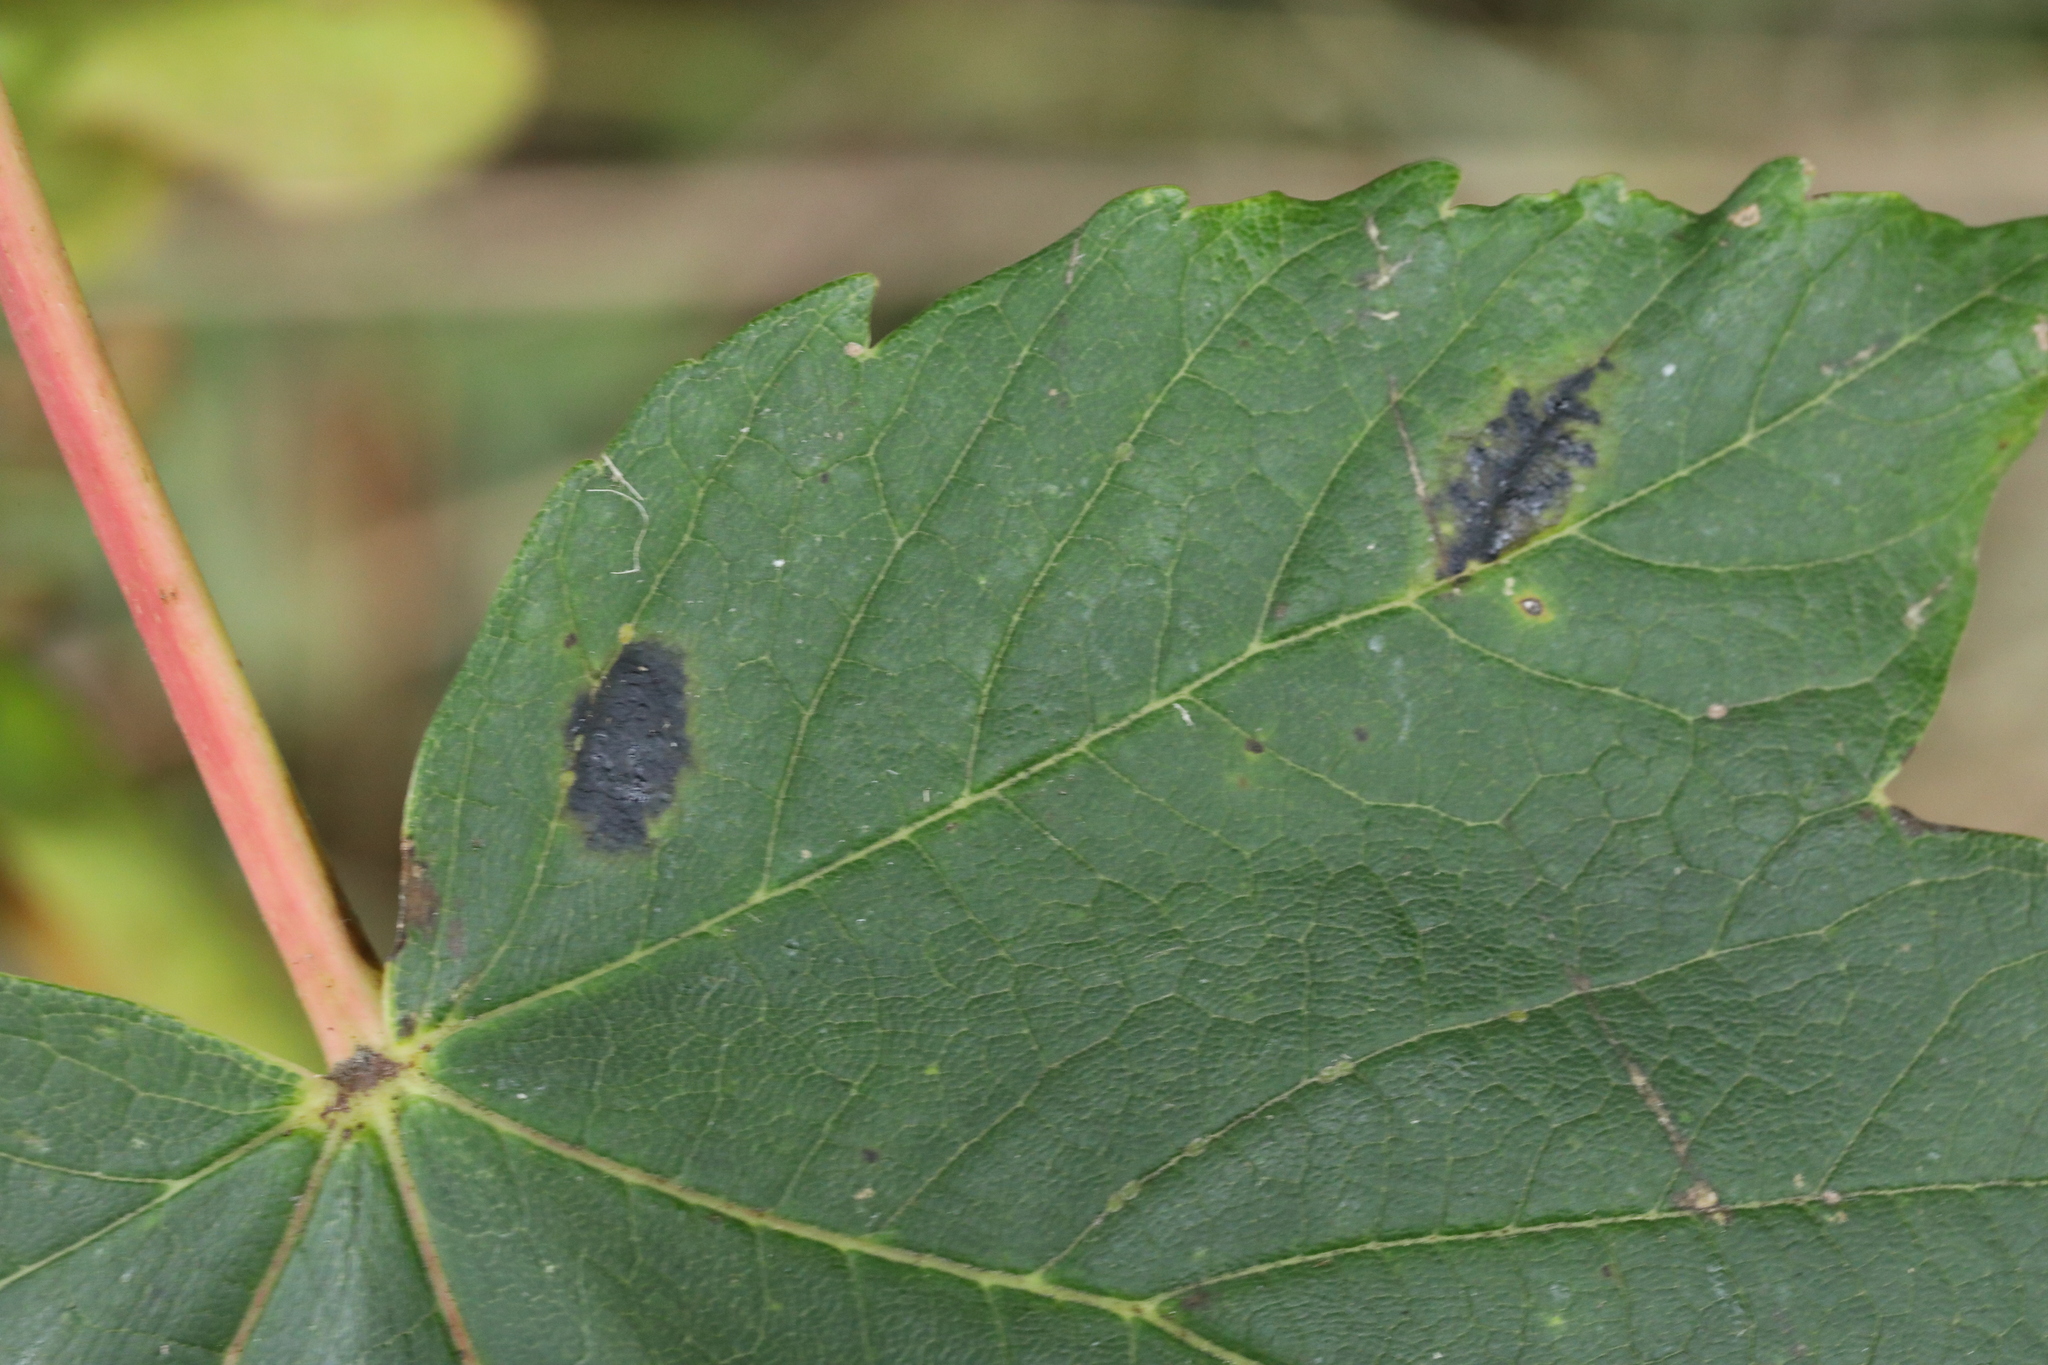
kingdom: Fungi
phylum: Ascomycota
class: Leotiomycetes
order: Rhytismatales
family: Rhytismataceae
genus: Rhytisma
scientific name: Rhytisma acerinum
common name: European tar spot
